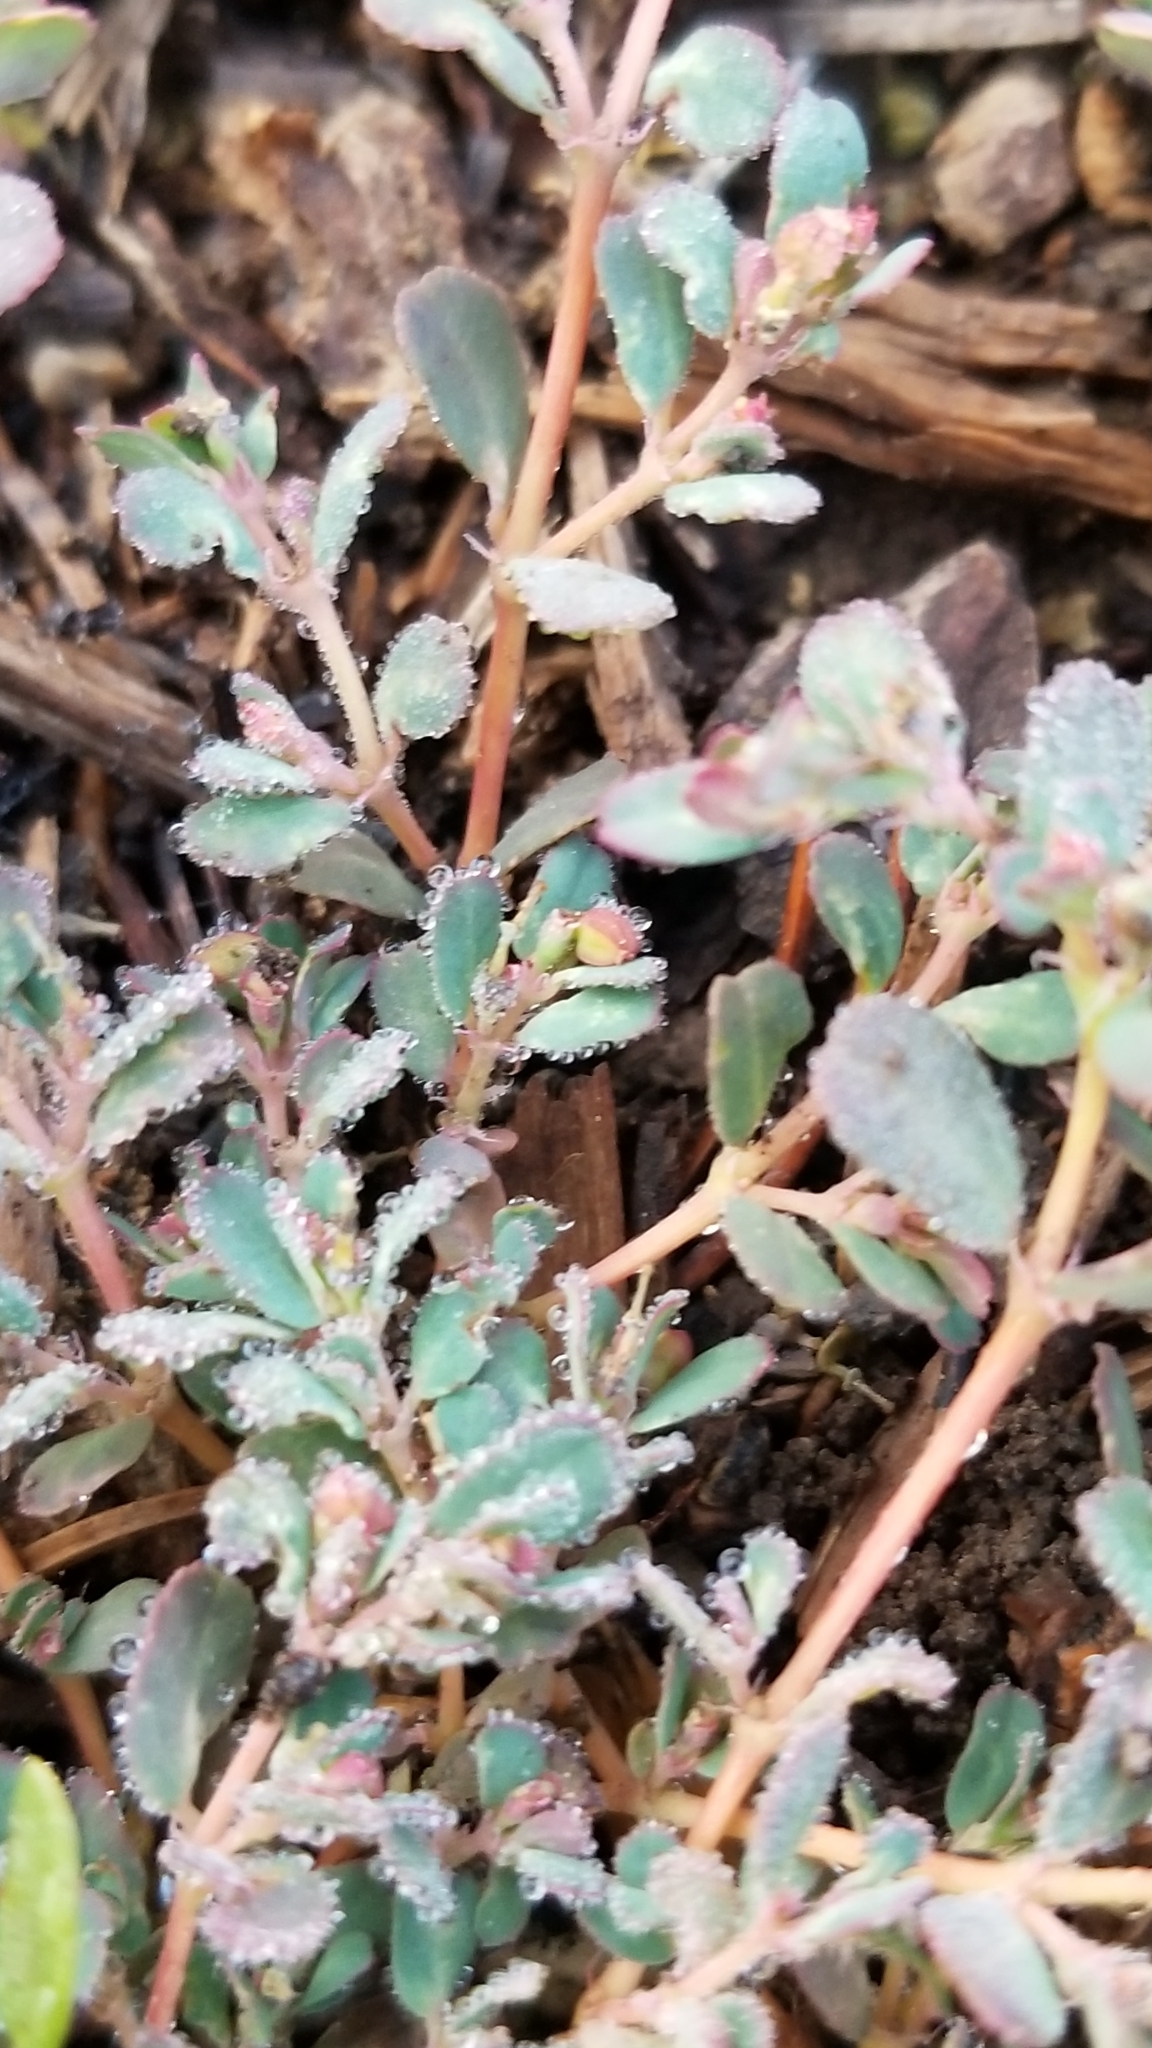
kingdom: Plantae
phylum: Tracheophyta
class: Magnoliopsida
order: Malpighiales
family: Euphorbiaceae
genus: Euphorbia
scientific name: Euphorbia serpillifolia
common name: Thyme-leaf spurge
